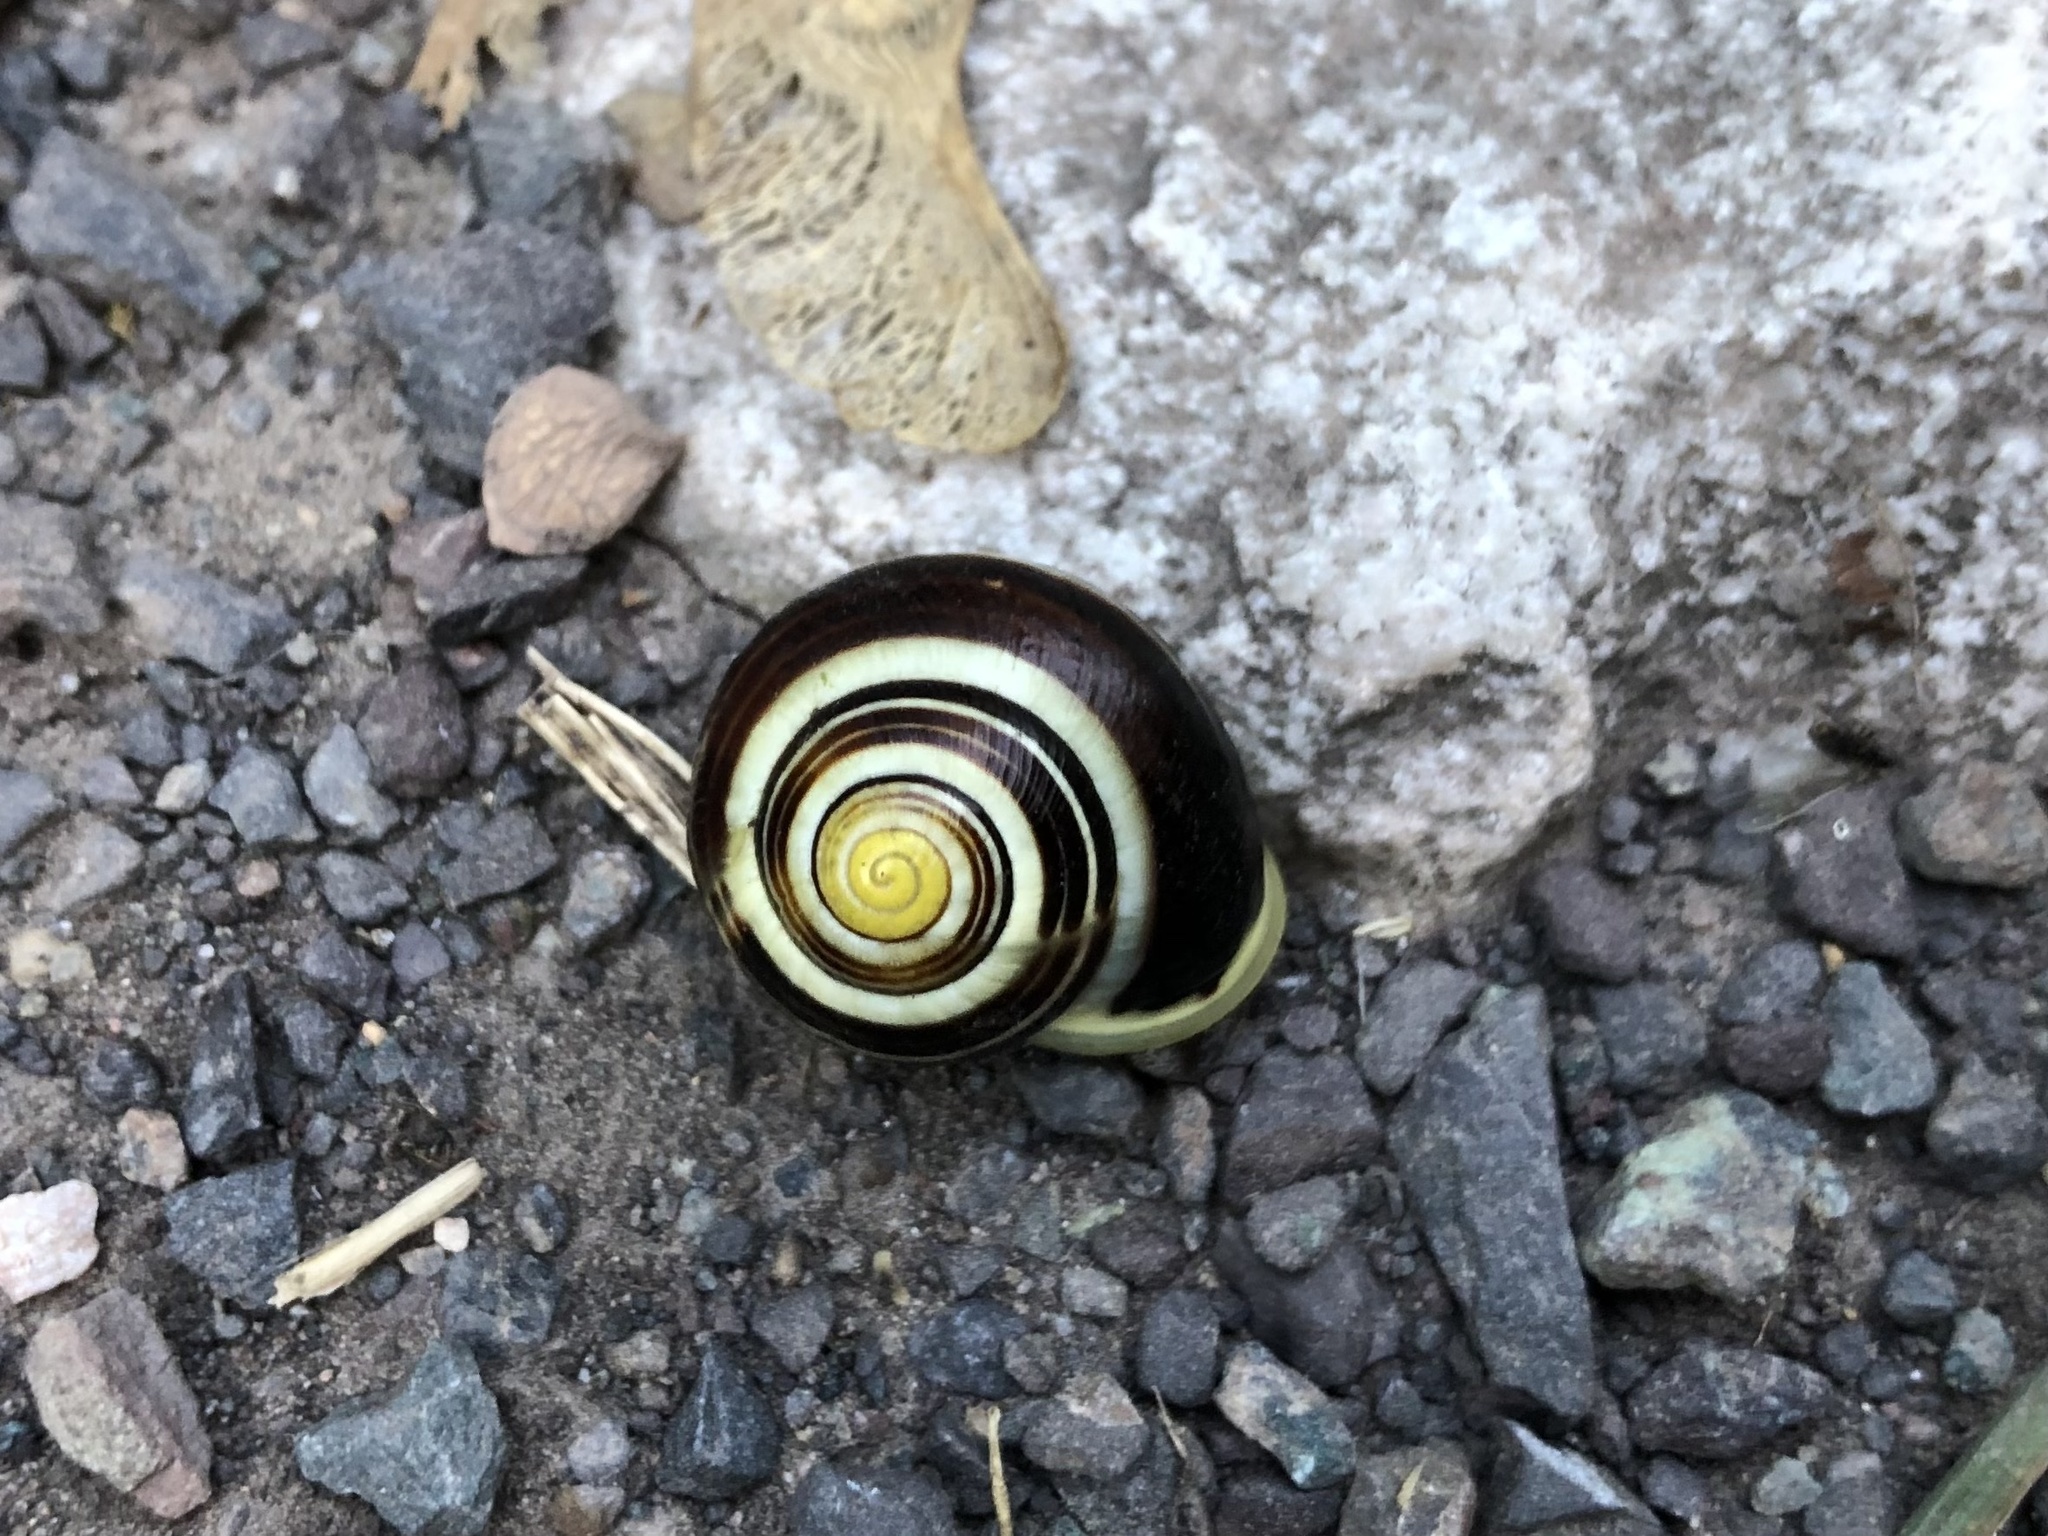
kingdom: Animalia
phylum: Mollusca
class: Gastropoda
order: Stylommatophora
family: Helicidae
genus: Cepaea
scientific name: Cepaea hortensis
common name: White-lip gardensnail
